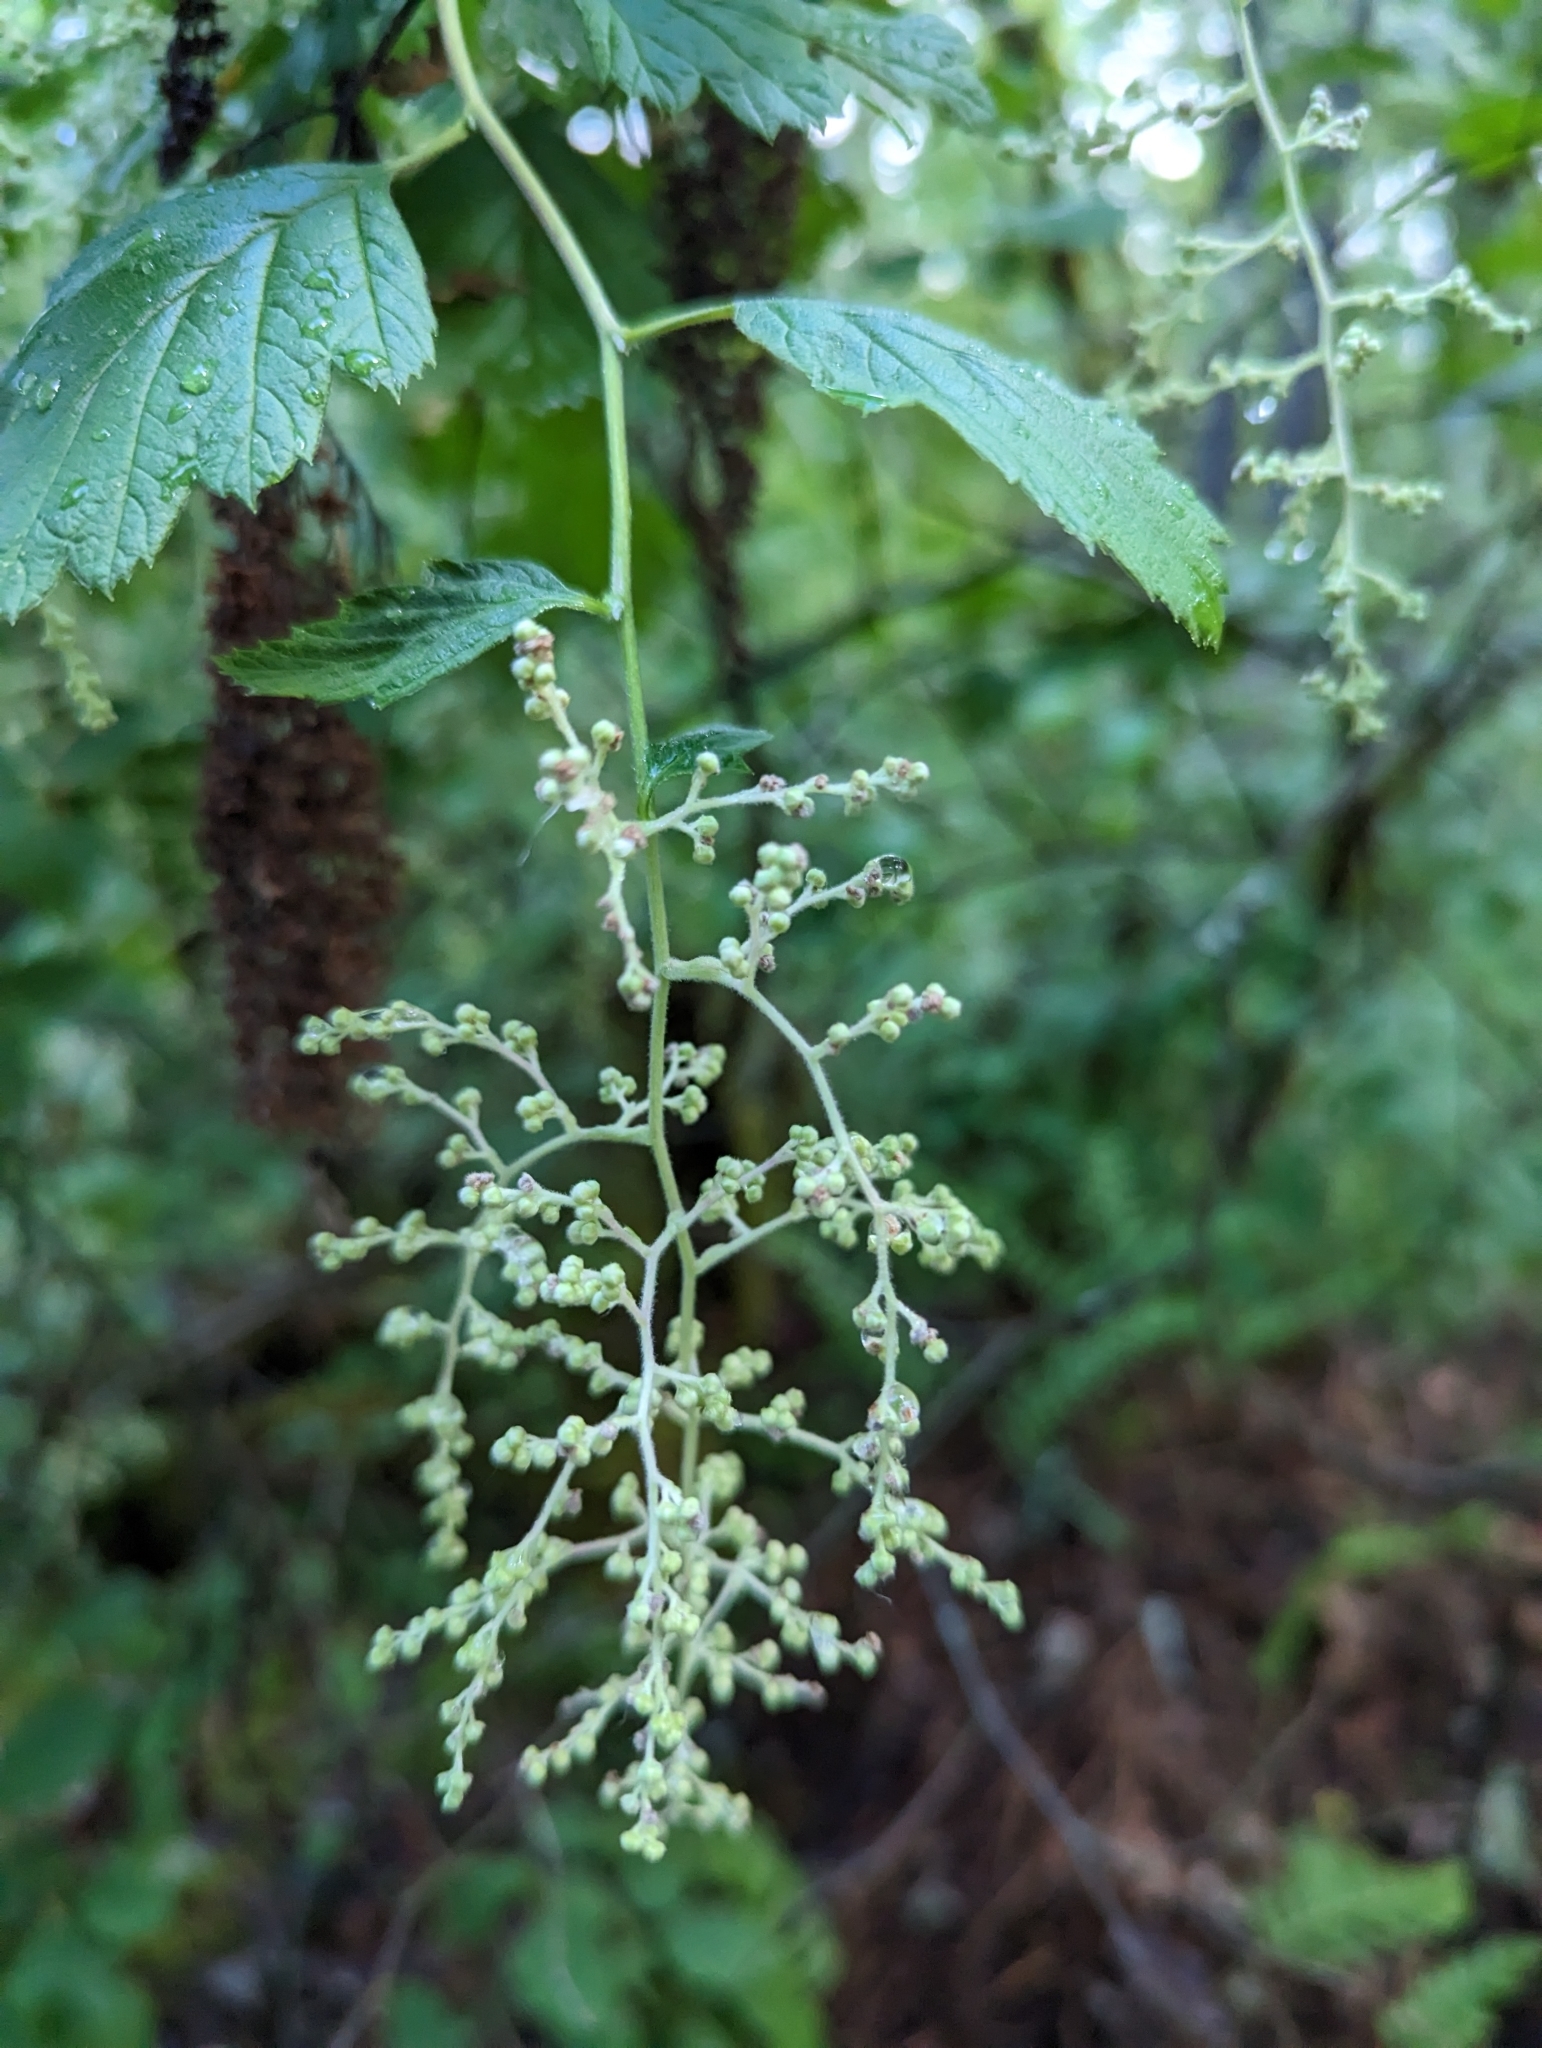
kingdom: Plantae
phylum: Tracheophyta
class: Magnoliopsida
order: Rosales
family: Rosaceae
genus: Holodiscus
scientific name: Holodiscus discolor
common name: Oceanspray
